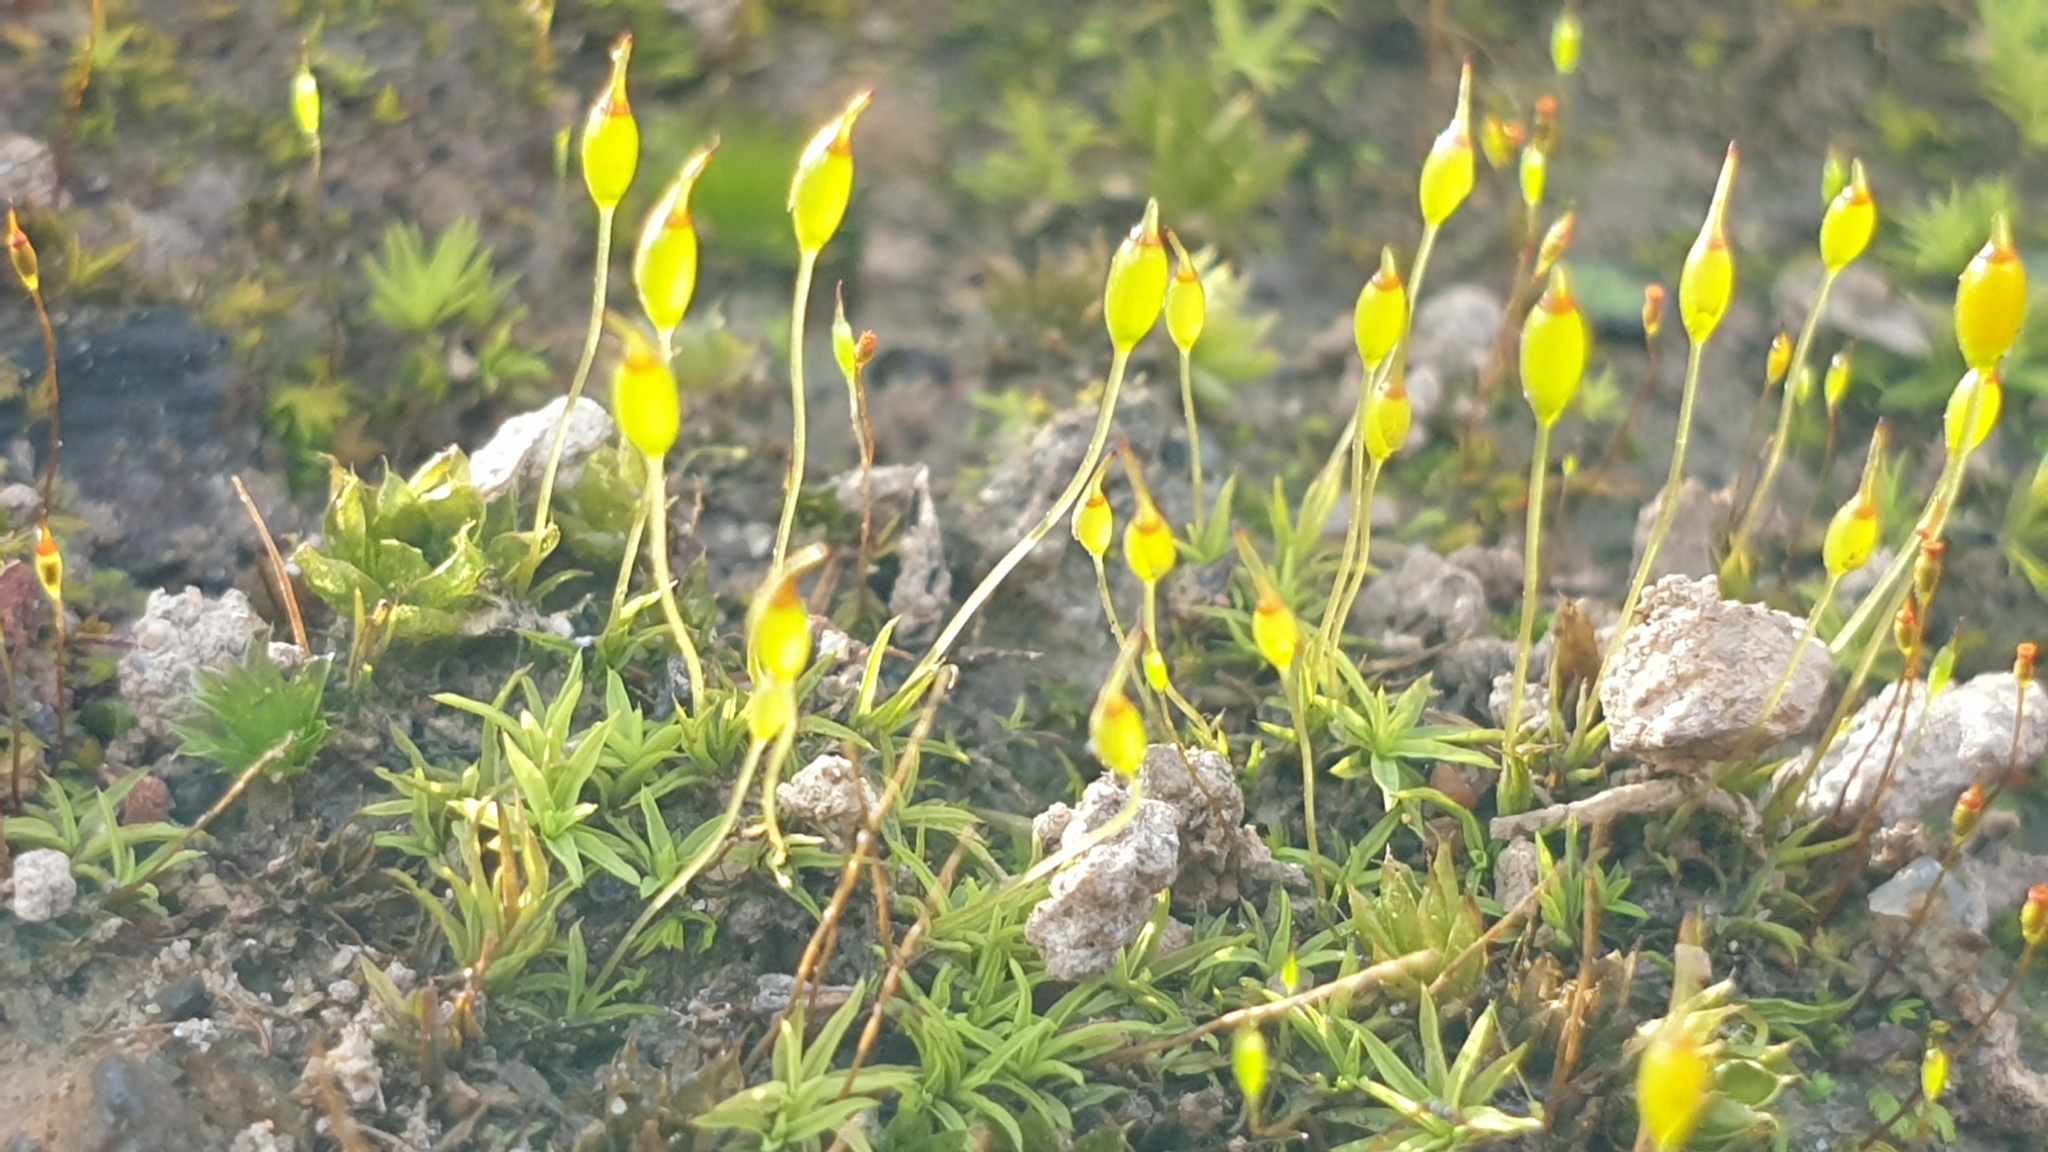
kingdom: Plantae
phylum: Bryophyta
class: Bryopsida
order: Pottiales
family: Pottiaceae
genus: Weissia
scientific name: Weissia controversa
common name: Green-tufted stubble moss
